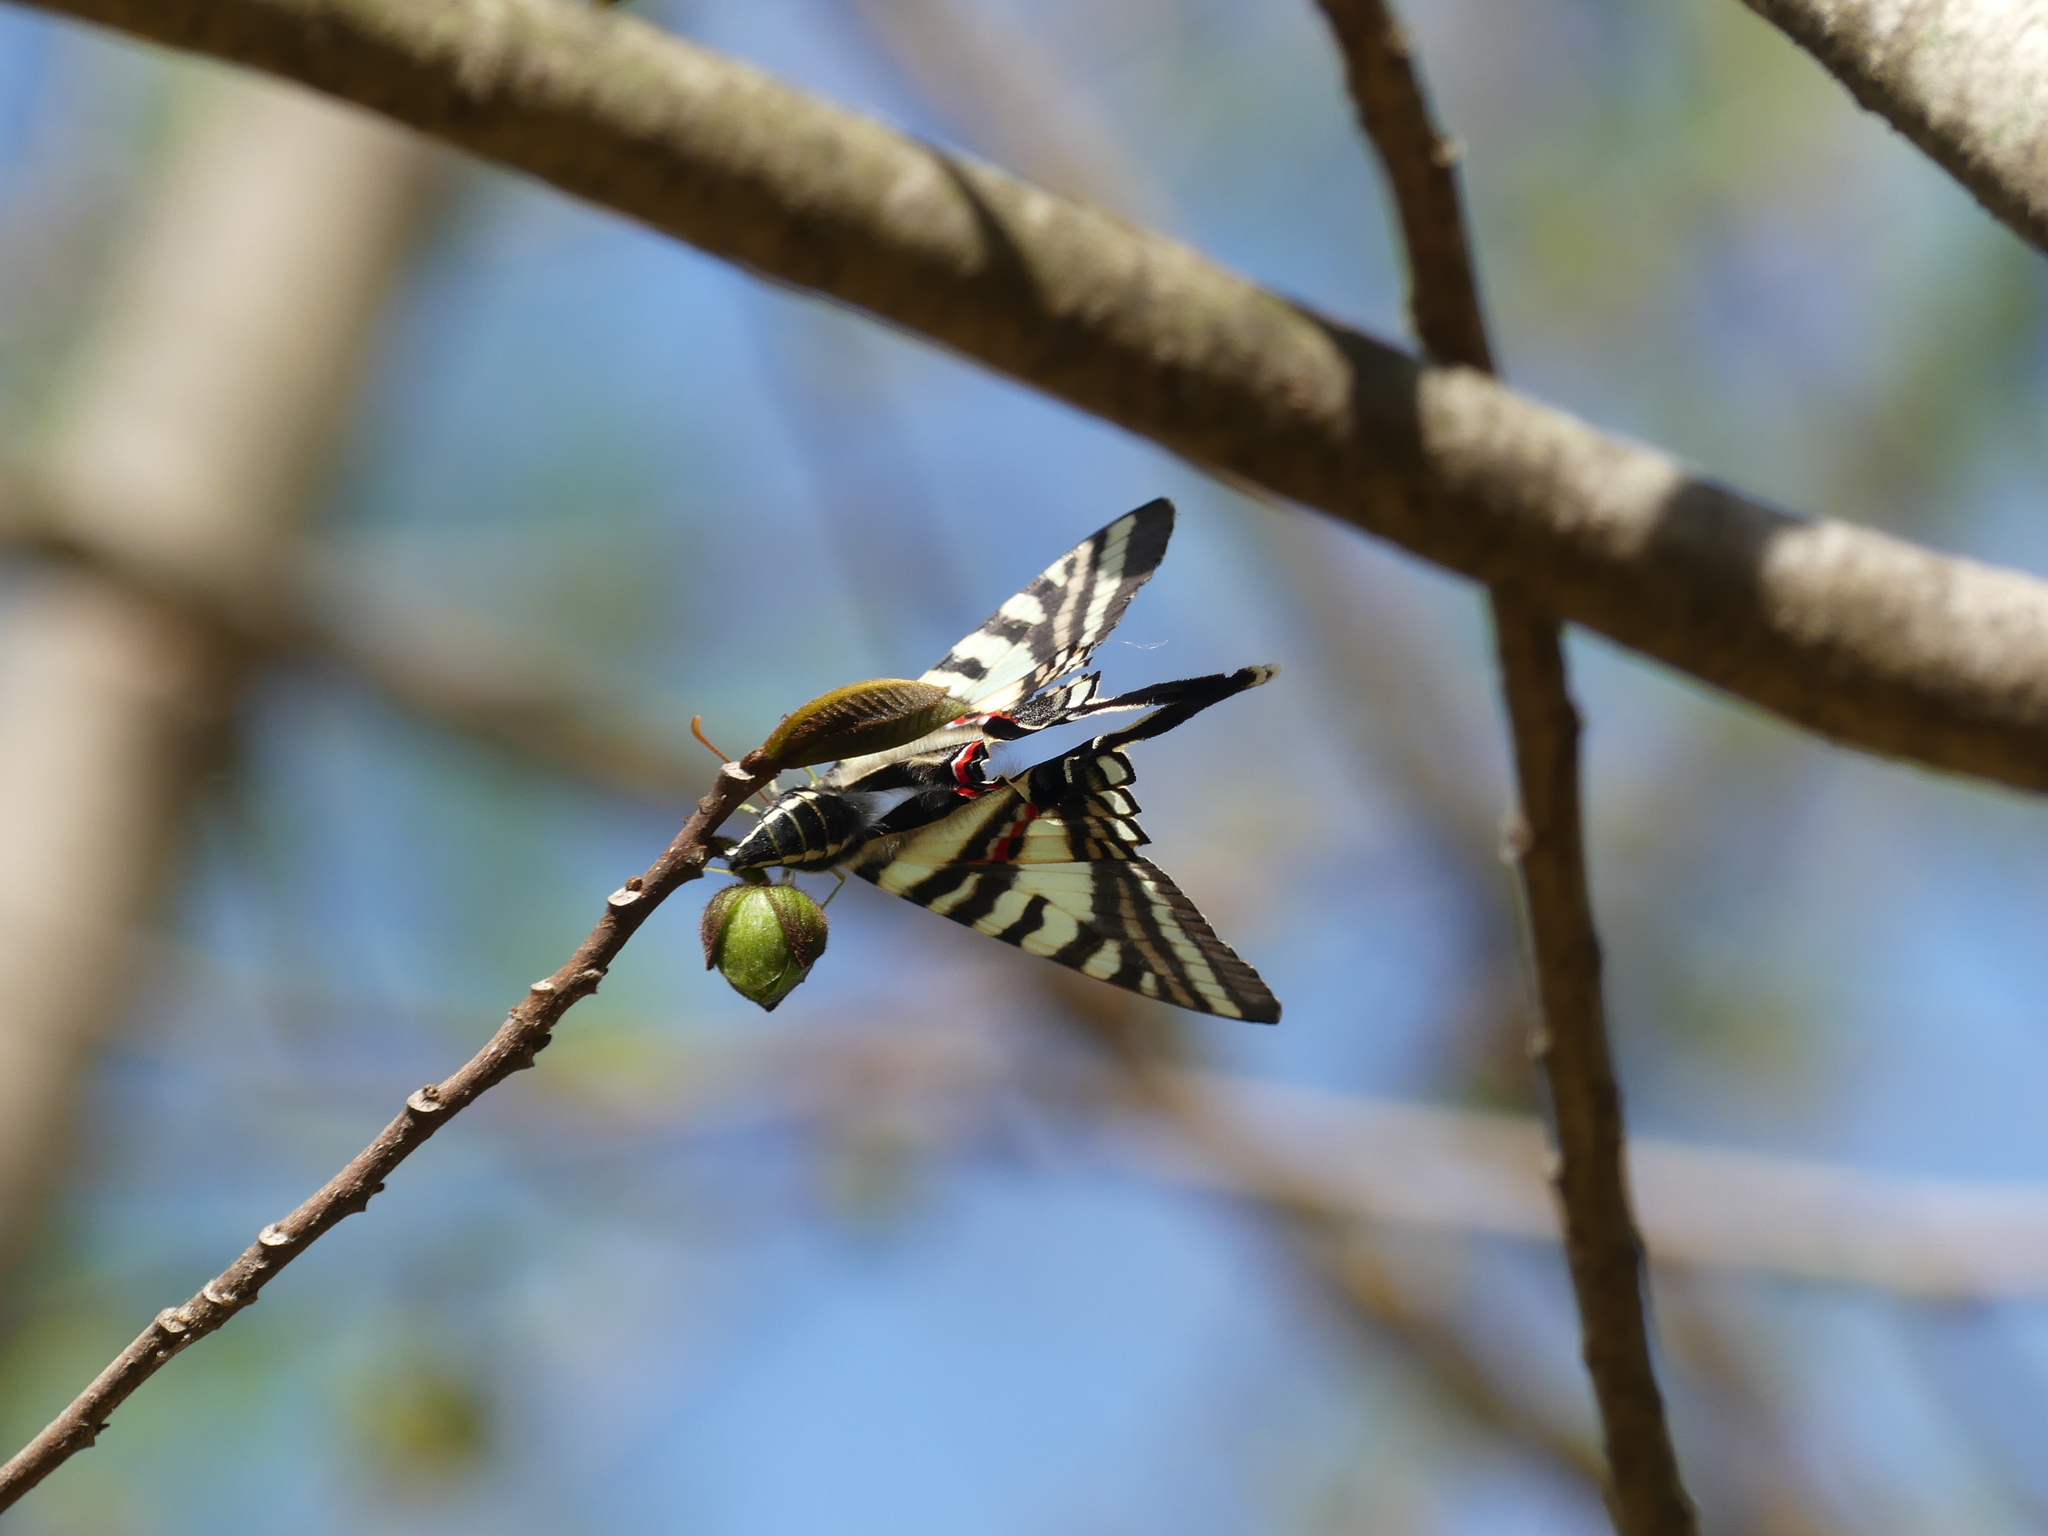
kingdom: Animalia
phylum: Arthropoda
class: Insecta
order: Lepidoptera
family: Papilionidae
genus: Protographium
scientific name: Protographium marcellus
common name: Zebra swallowtail
